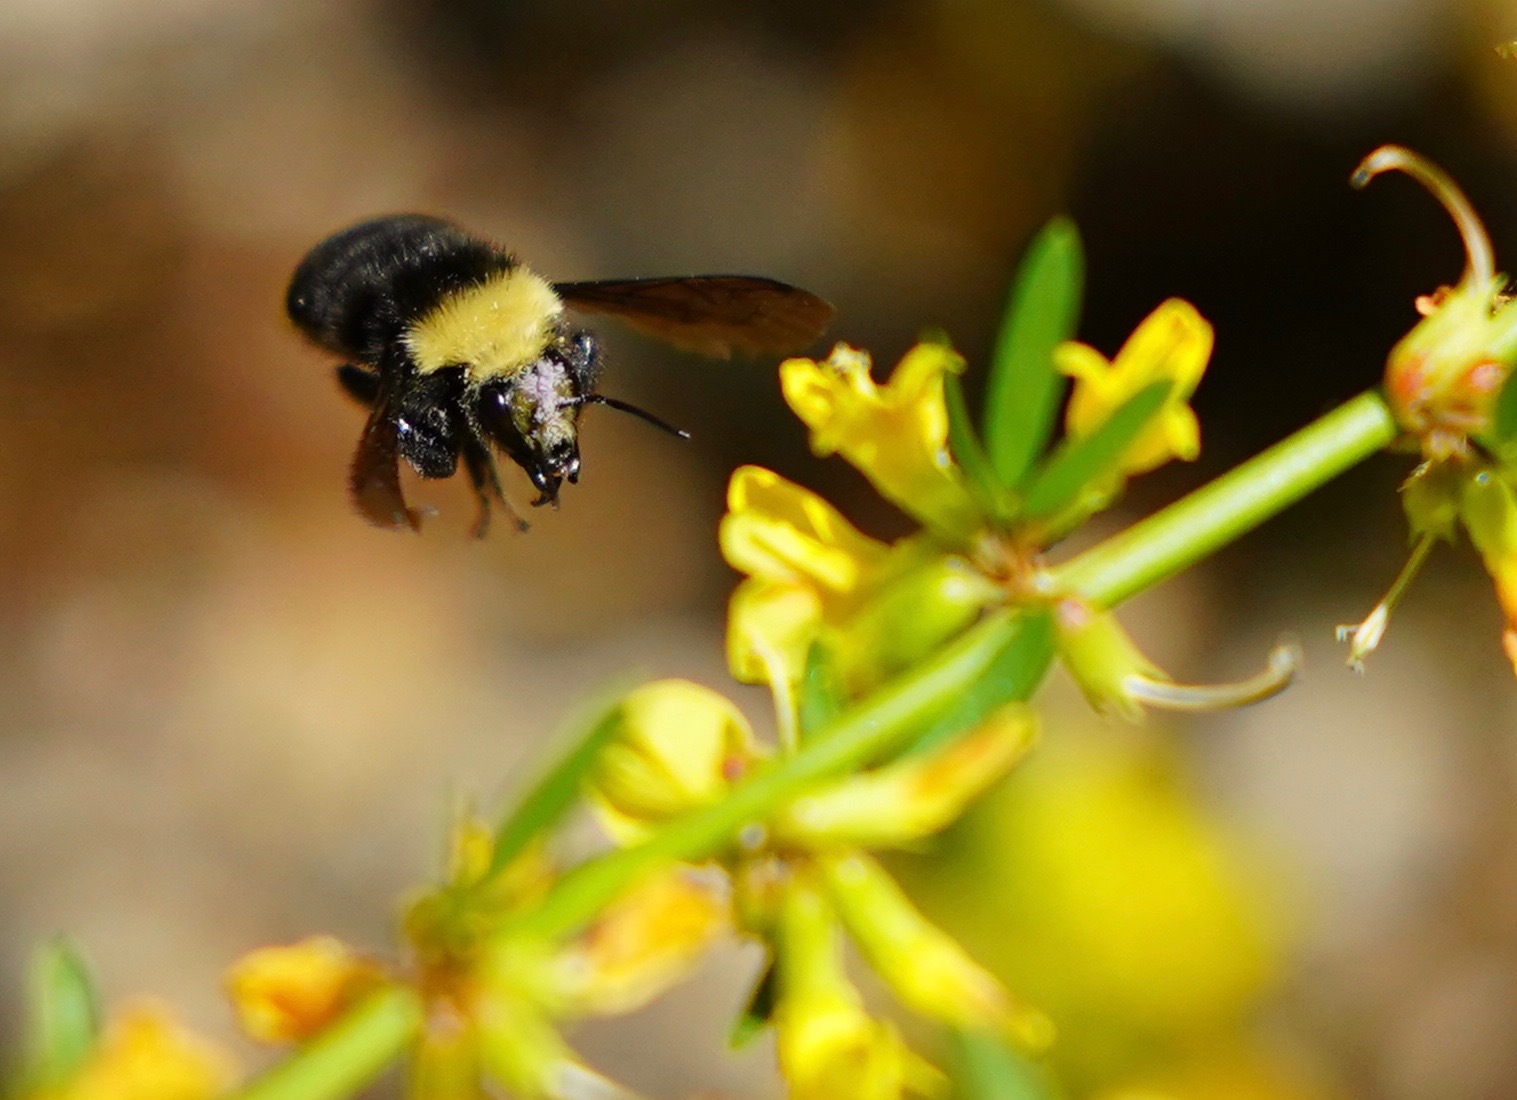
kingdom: Animalia
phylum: Arthropoda
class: Insecta
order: Hymenoptera
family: Apidae
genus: Bombus
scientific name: Bombus vosnesenskii
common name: Vosnesensky bumble bee
